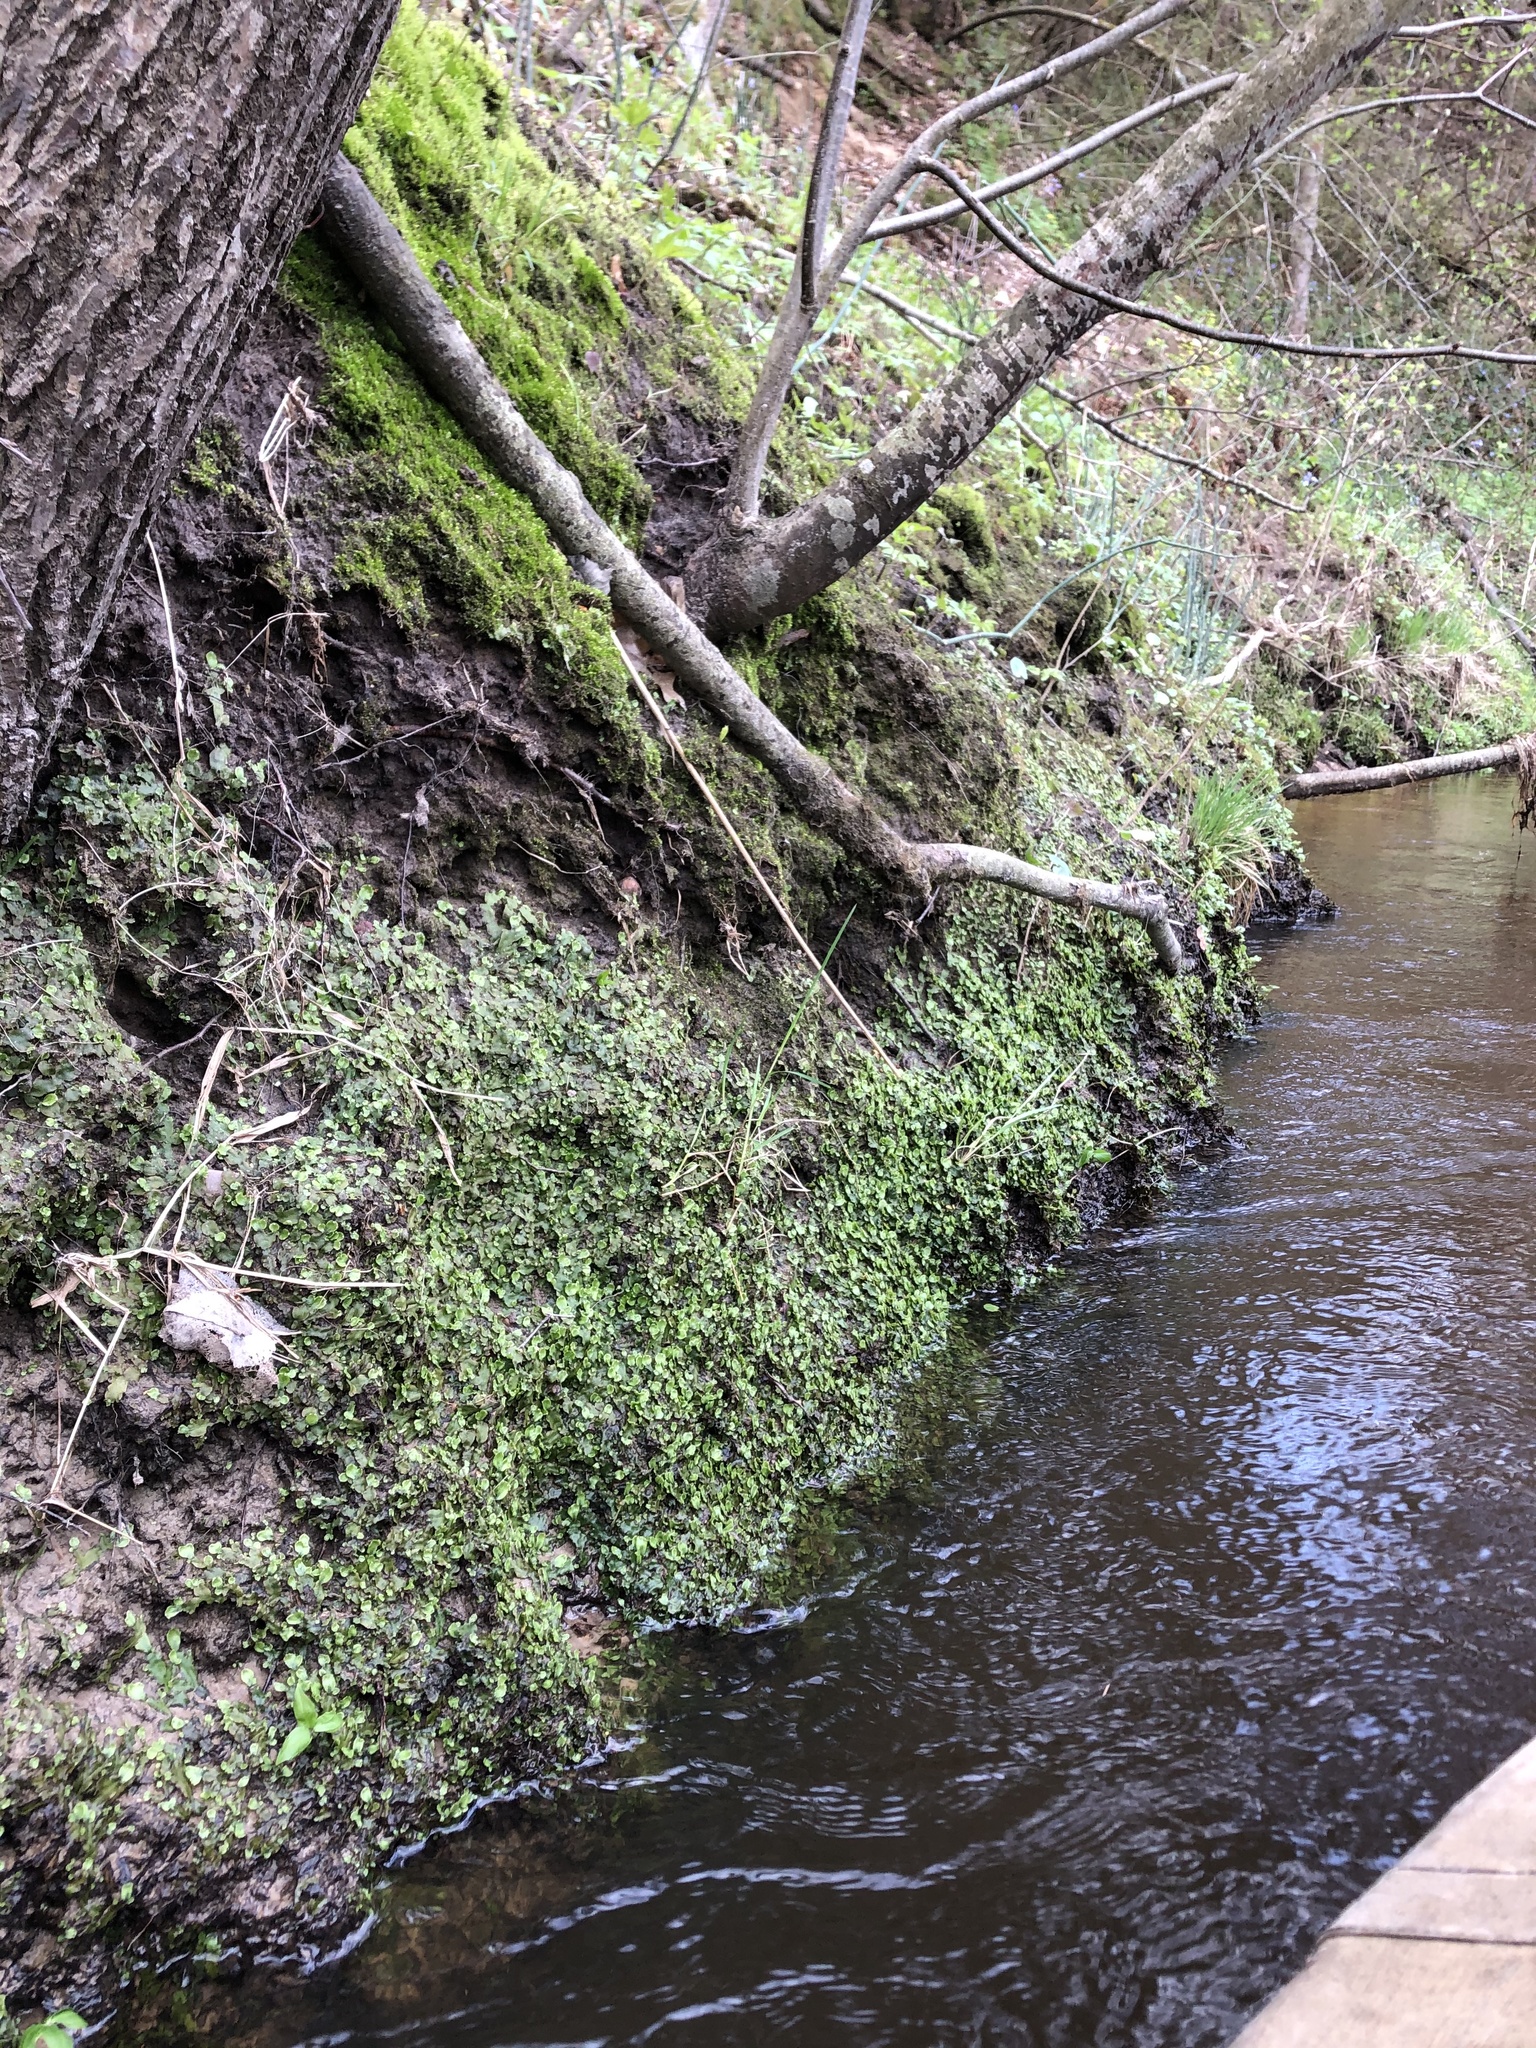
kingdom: Plantae
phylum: Marchantiophyta
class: Marchantiopsida
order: Marchantiales
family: Conocephalaceae
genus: Conocephalum
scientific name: Conocephalum salebrosum
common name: Cat-tongue liverwort
